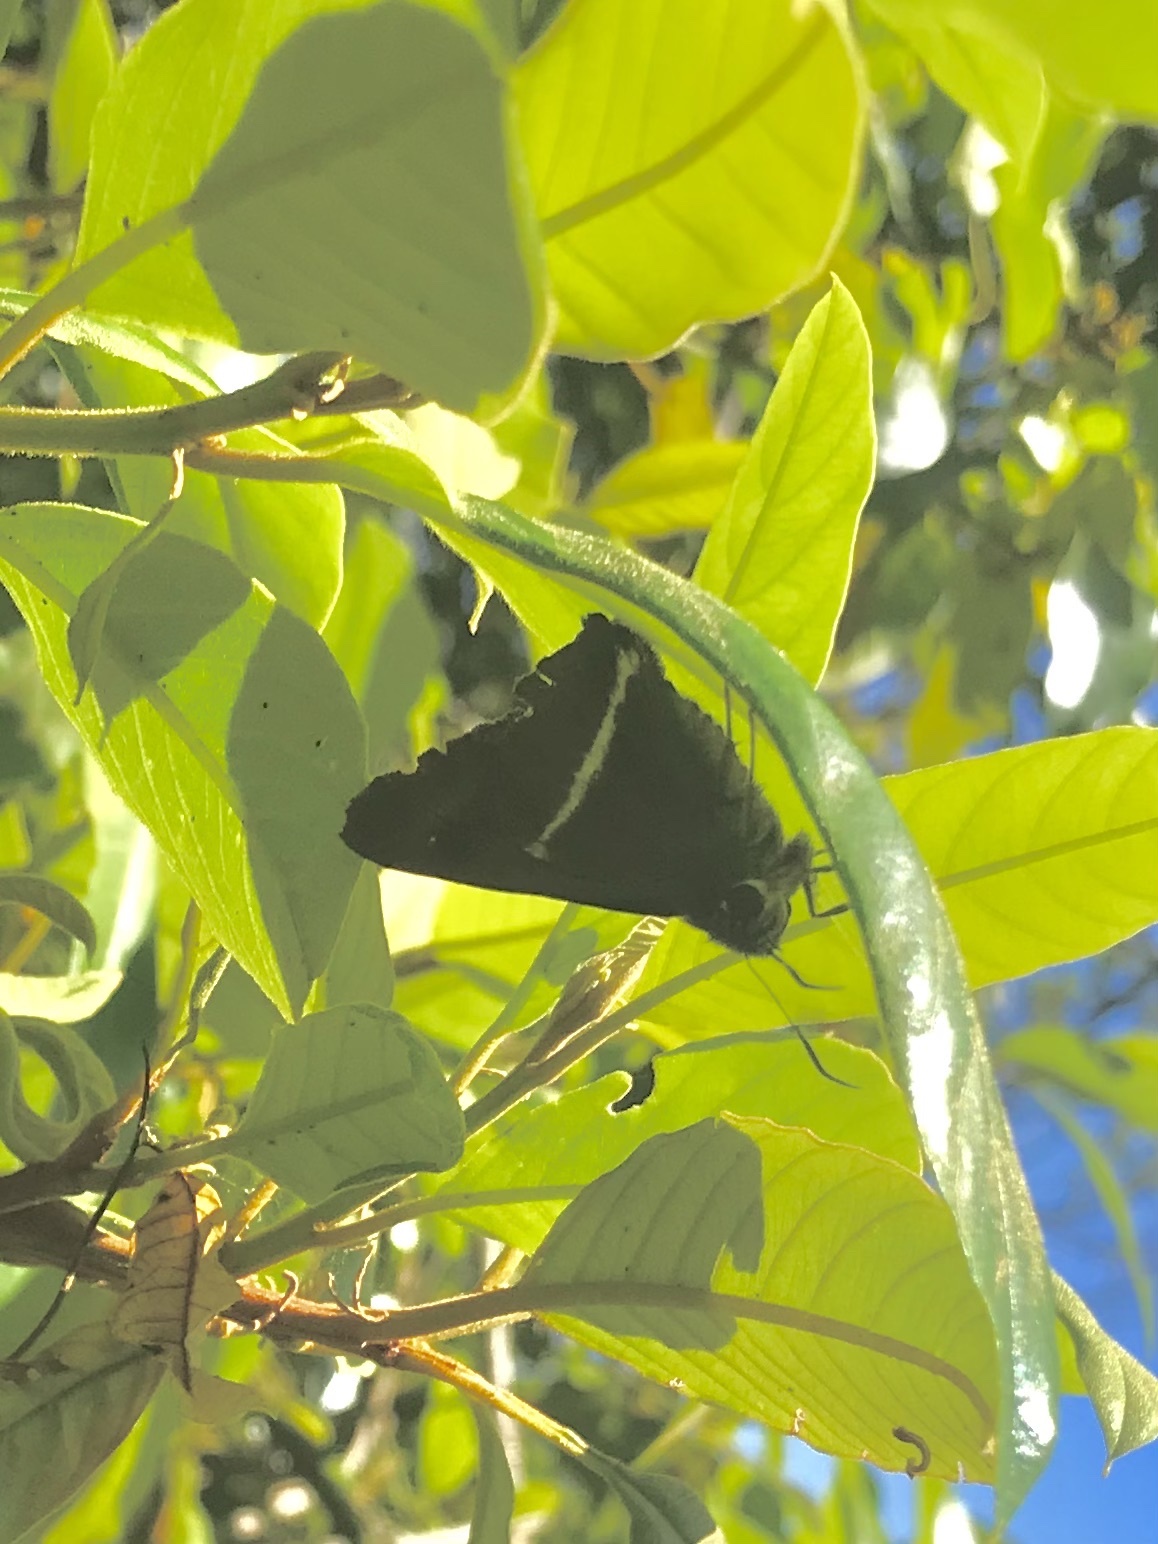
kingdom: Animalia
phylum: Arthropoda
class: Insecta
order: Lepidoptera
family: Hesperiidae
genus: Hasora
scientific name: Hasora khoda
